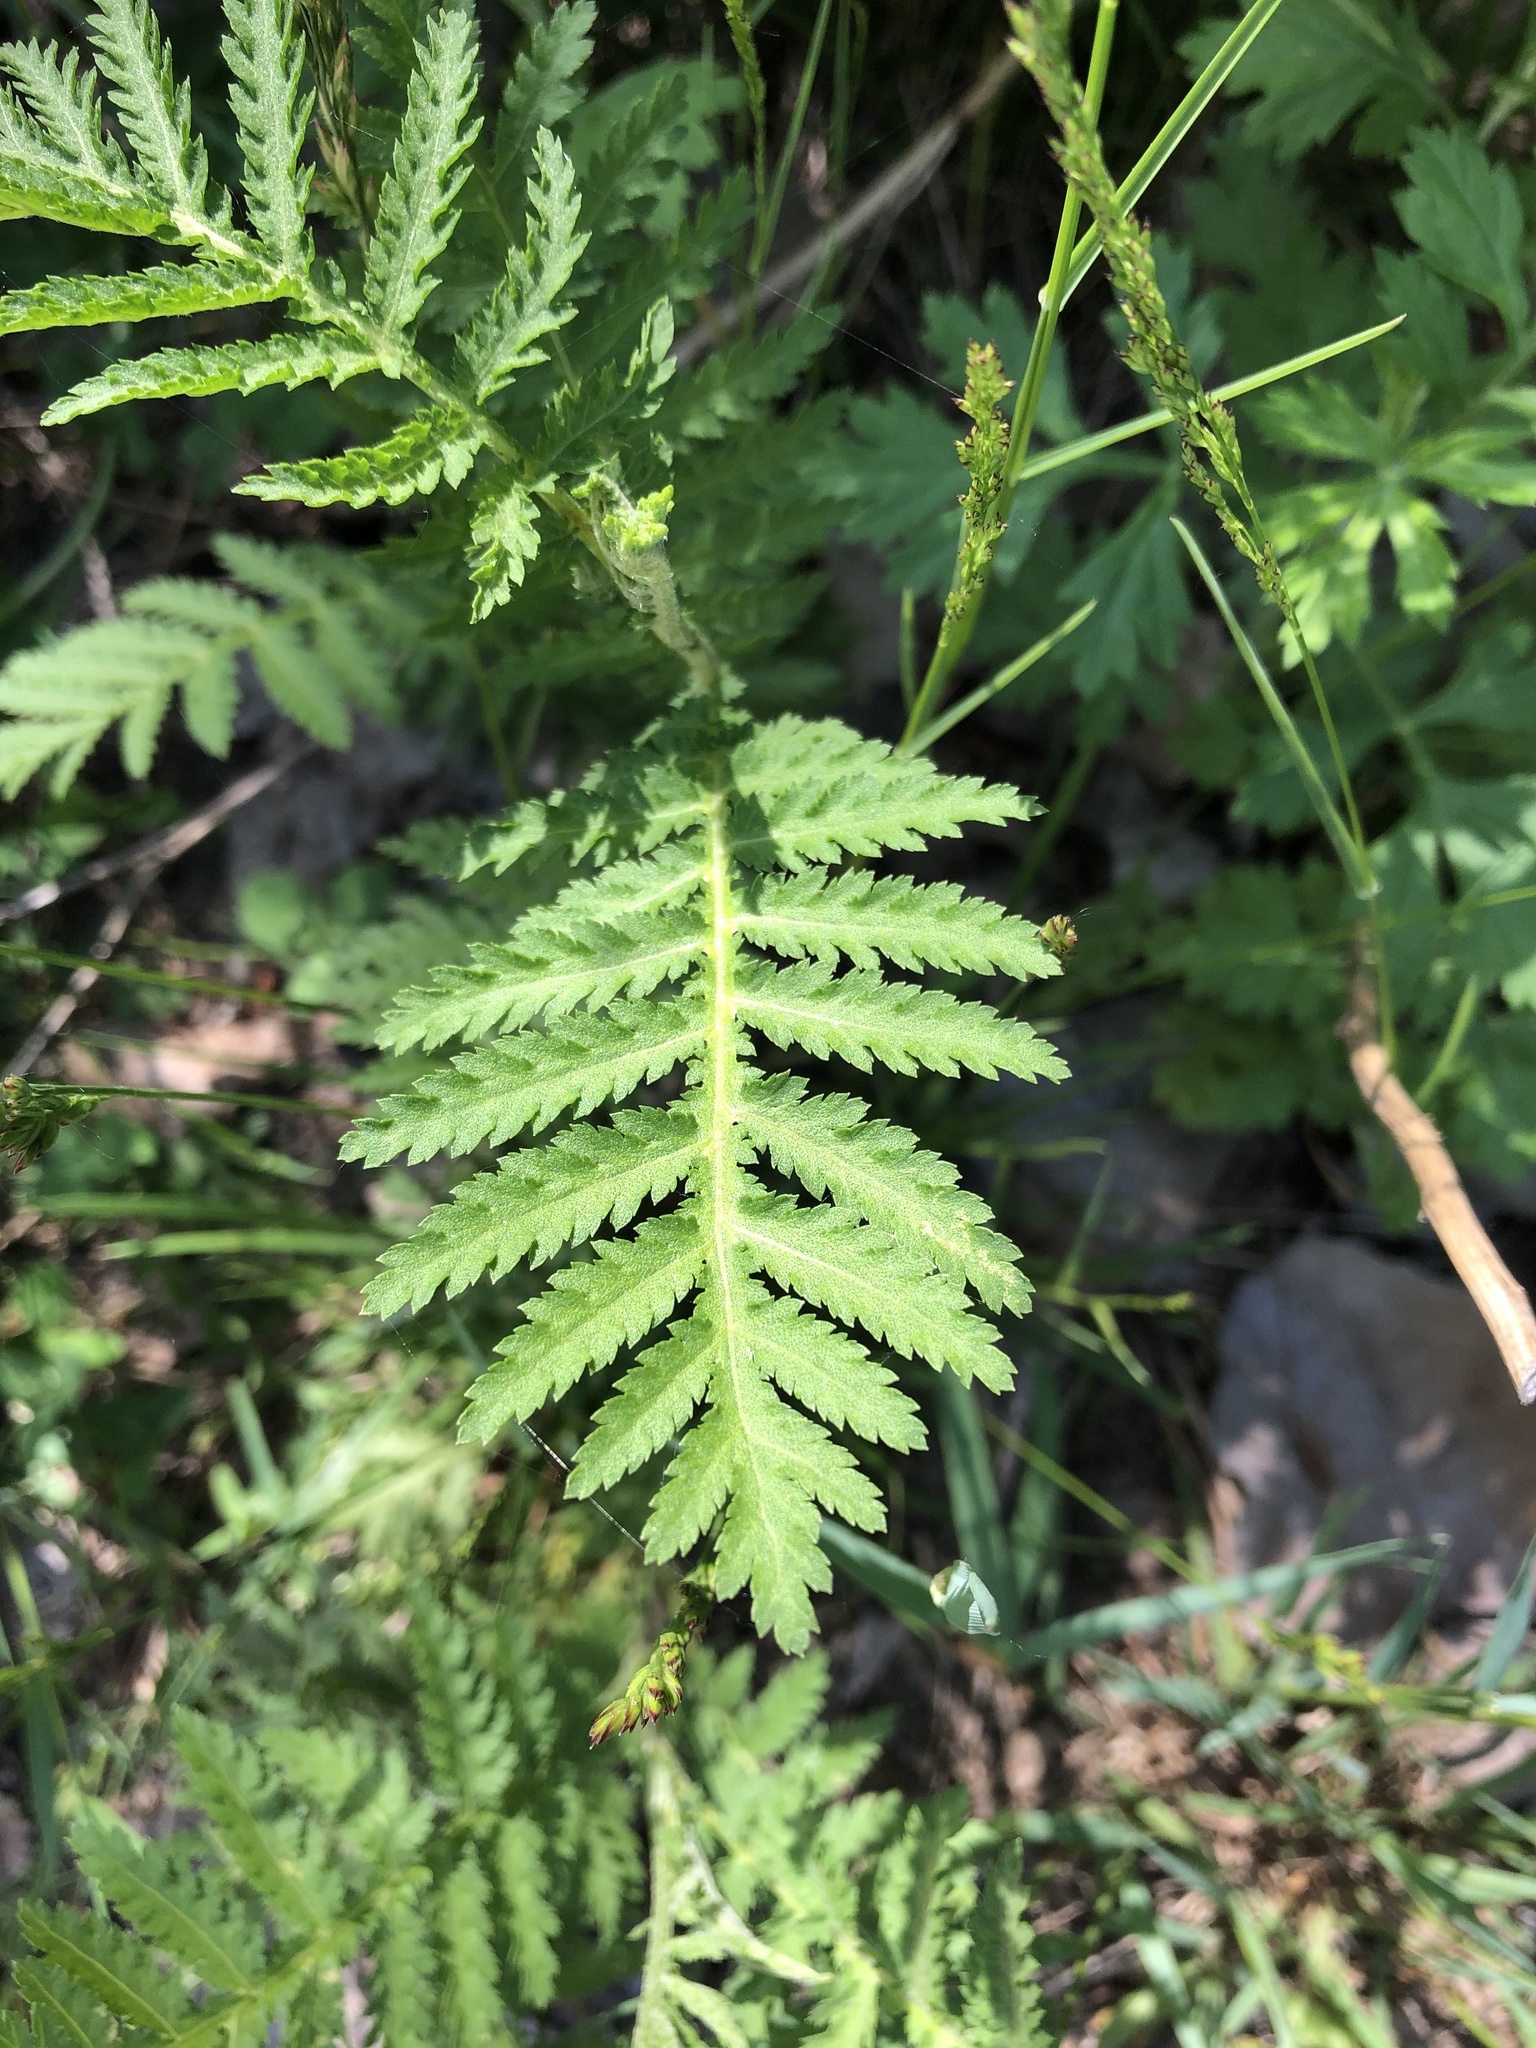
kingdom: Plantae
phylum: Tracheophyta
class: Magnoliopsida
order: Asterales
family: Asteraceae
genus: Tanacetum
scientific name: Tanacetum vulgare
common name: Common tansy
